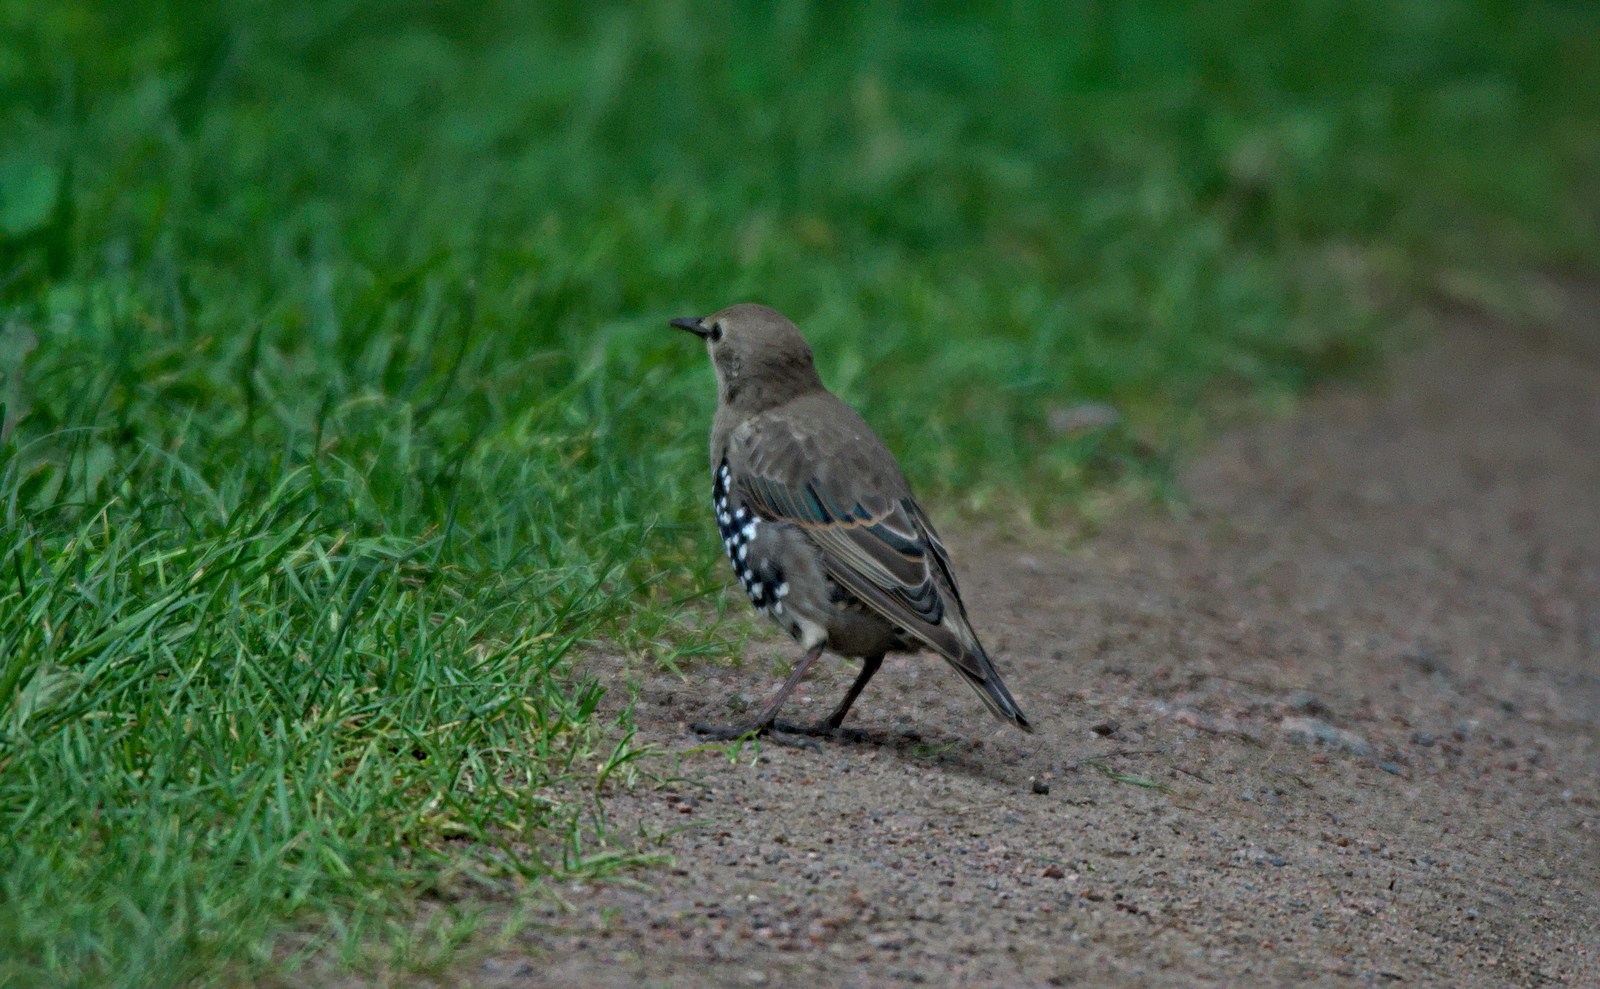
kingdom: Animalia
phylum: Chordata
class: Aves
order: Passeriformes
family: Sturnidae
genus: Sturnus
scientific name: Sturnus vulgaris
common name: Common starling
